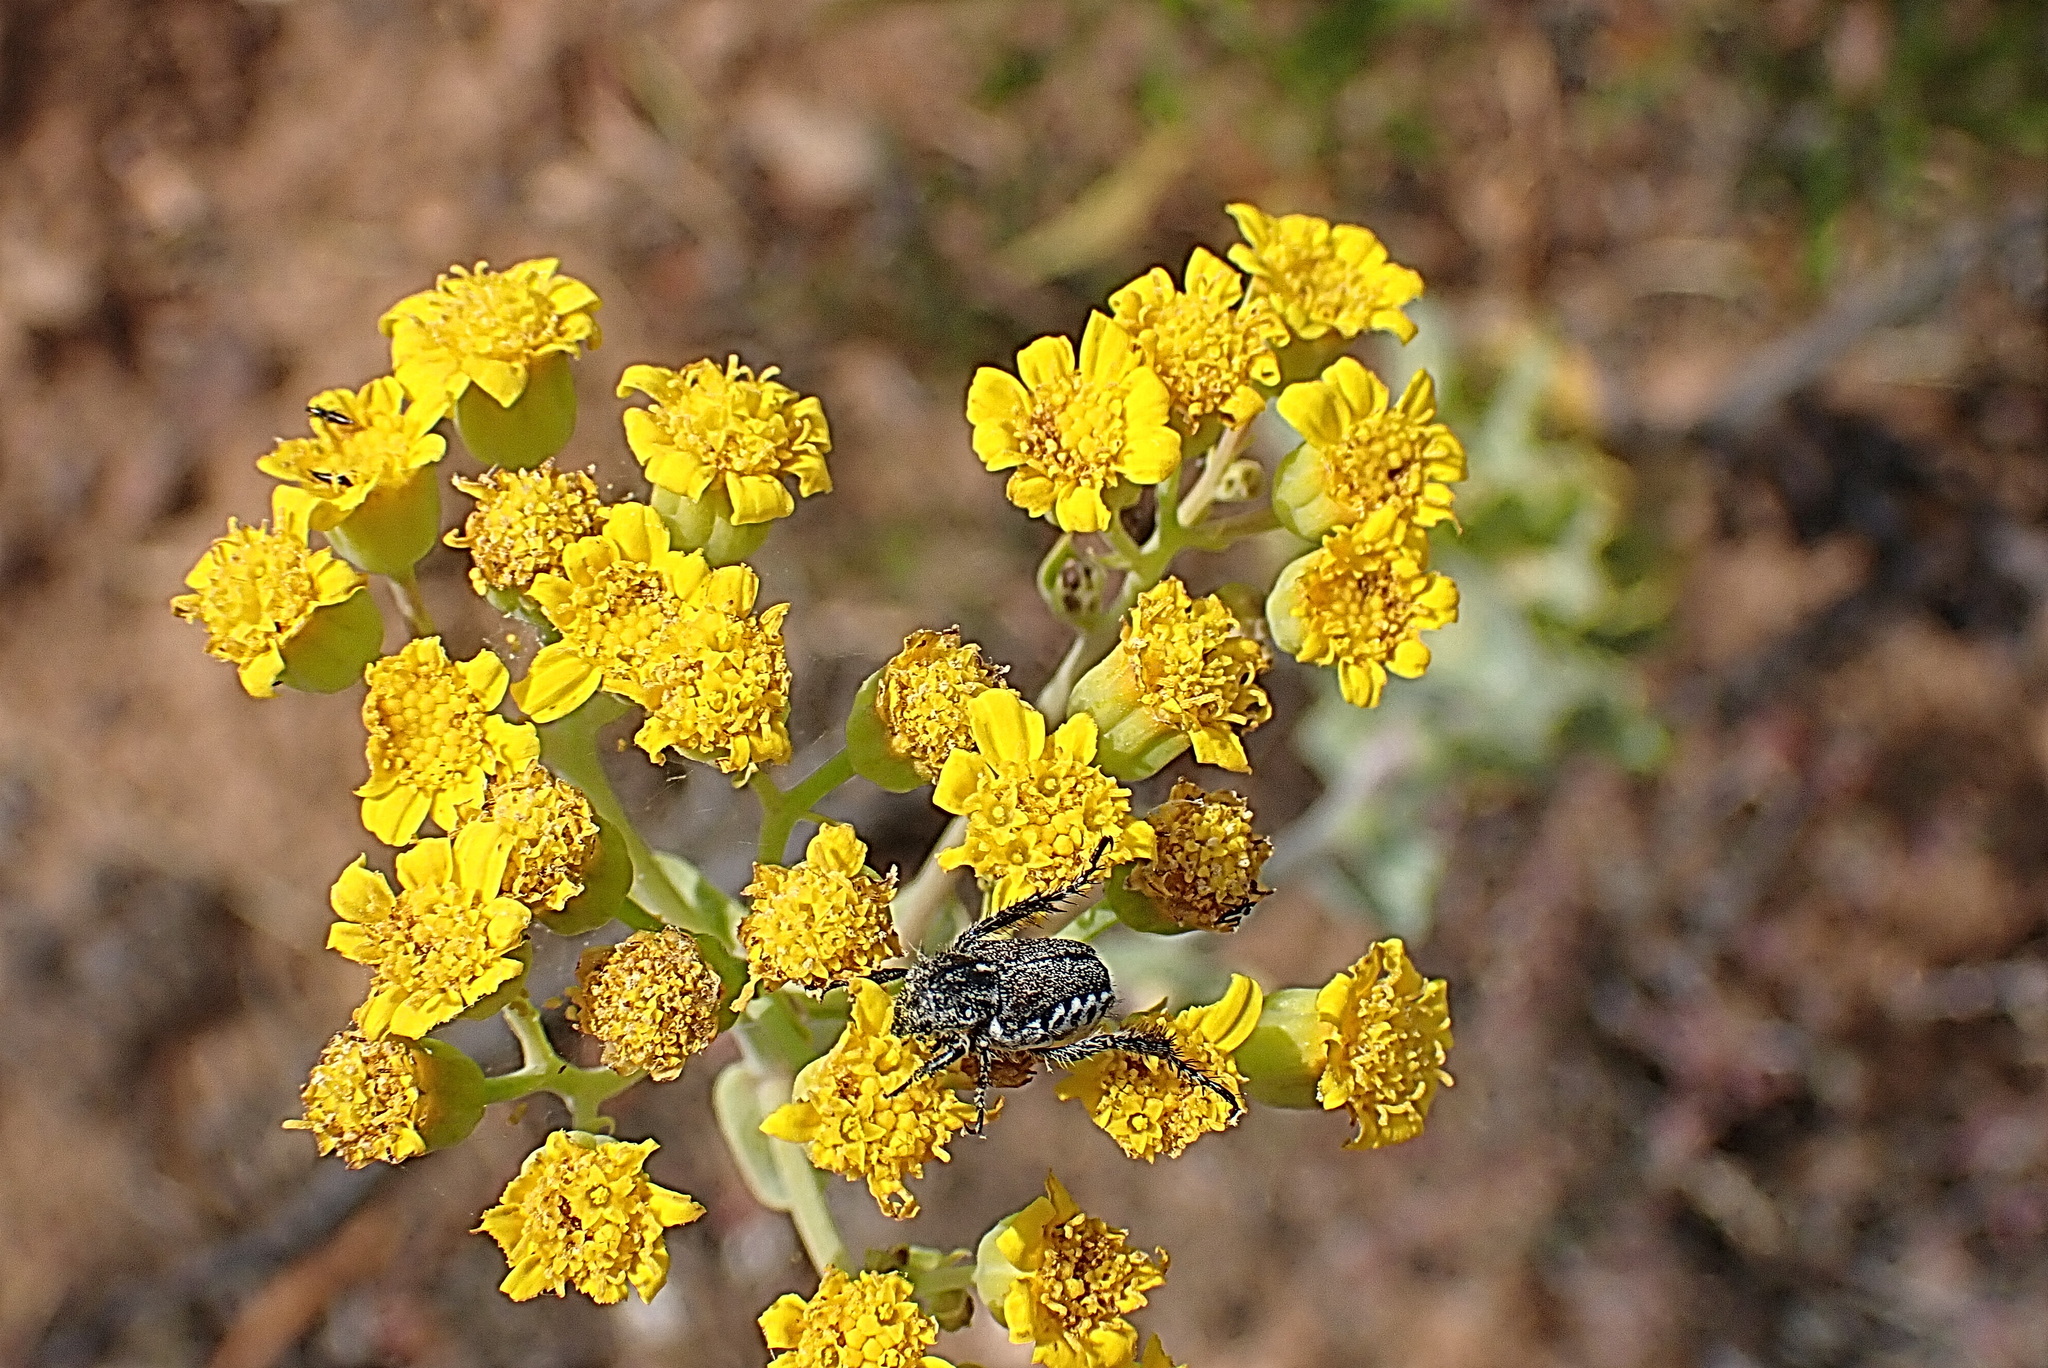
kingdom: Plantae
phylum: Tracheophyta
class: Magnoliopsida
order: Asterales
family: Asteraceae
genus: Othonna
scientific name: Othonna parviflora
